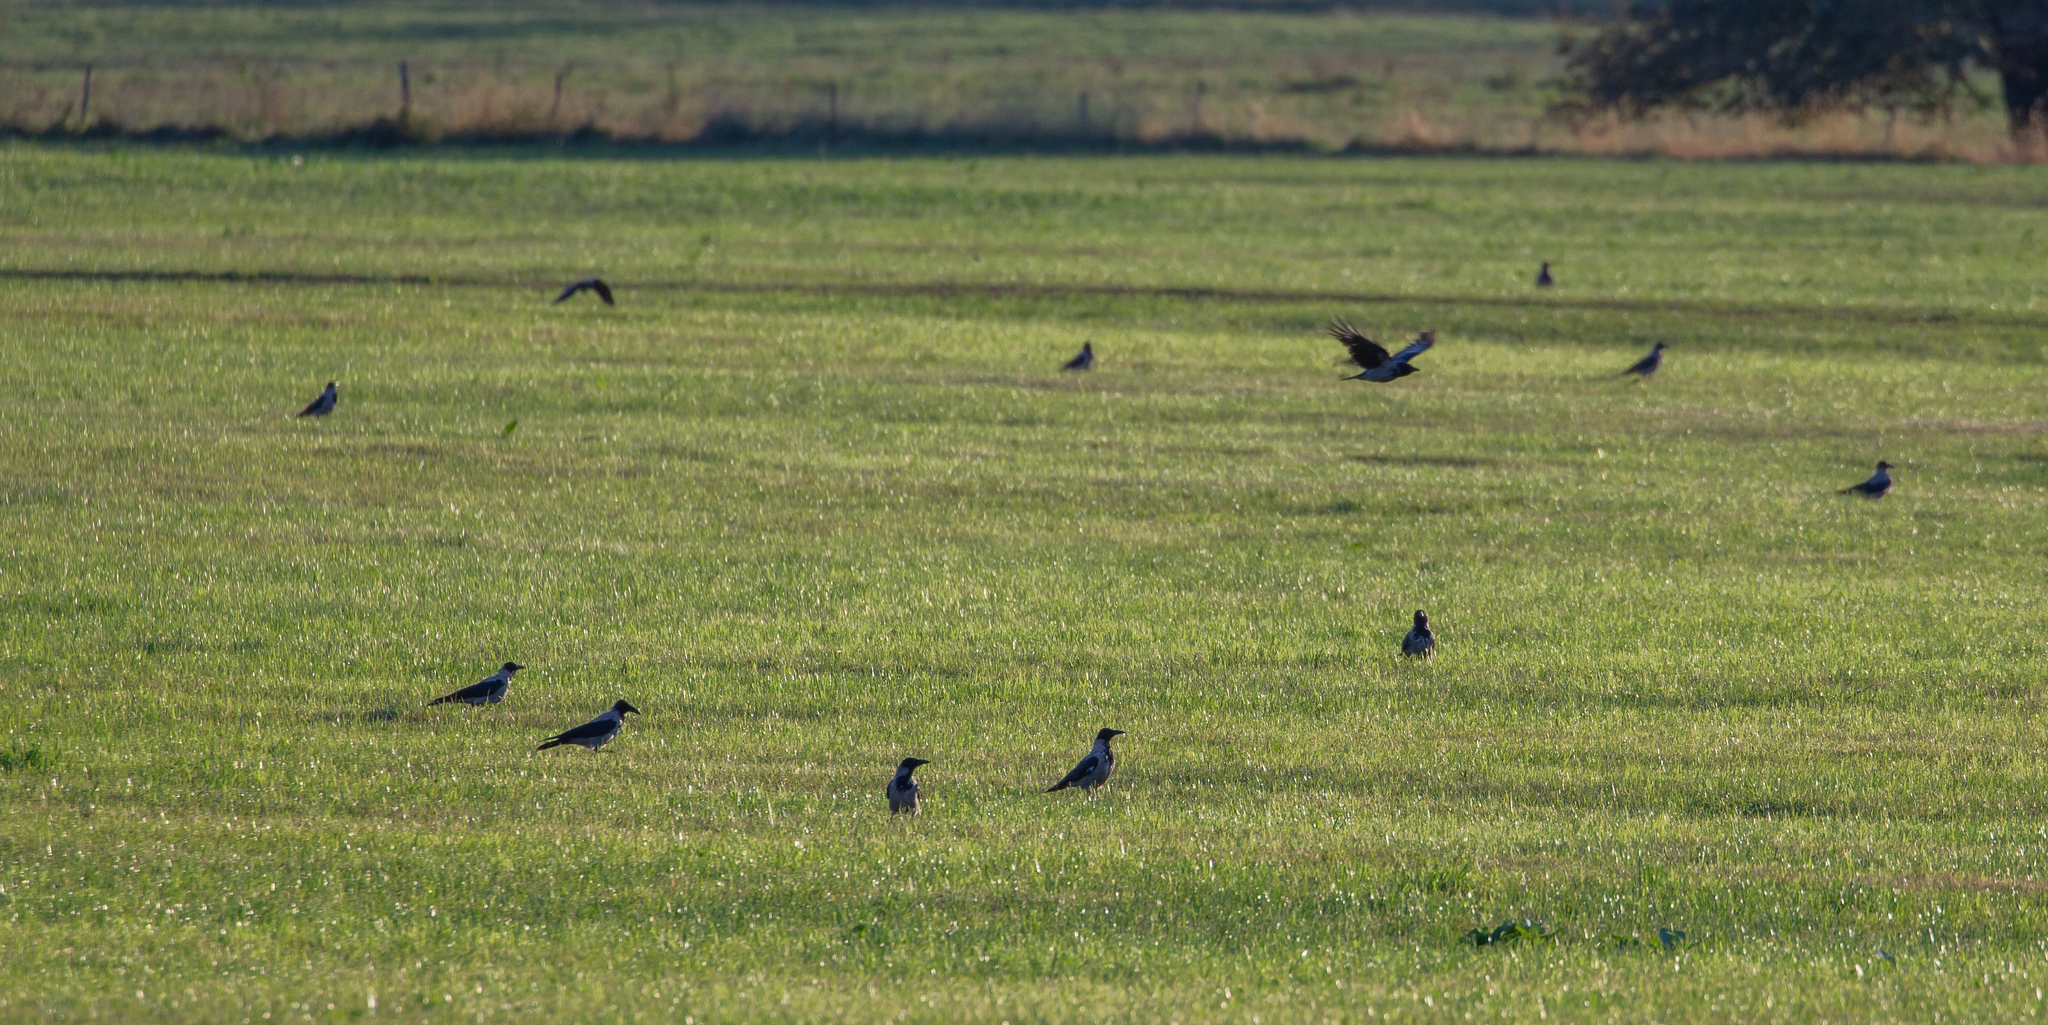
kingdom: Animalia
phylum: Chordata
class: Aves
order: Passeriformes
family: Corvidae
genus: Corvus
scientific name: Corvus cornix
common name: Hooded crow
